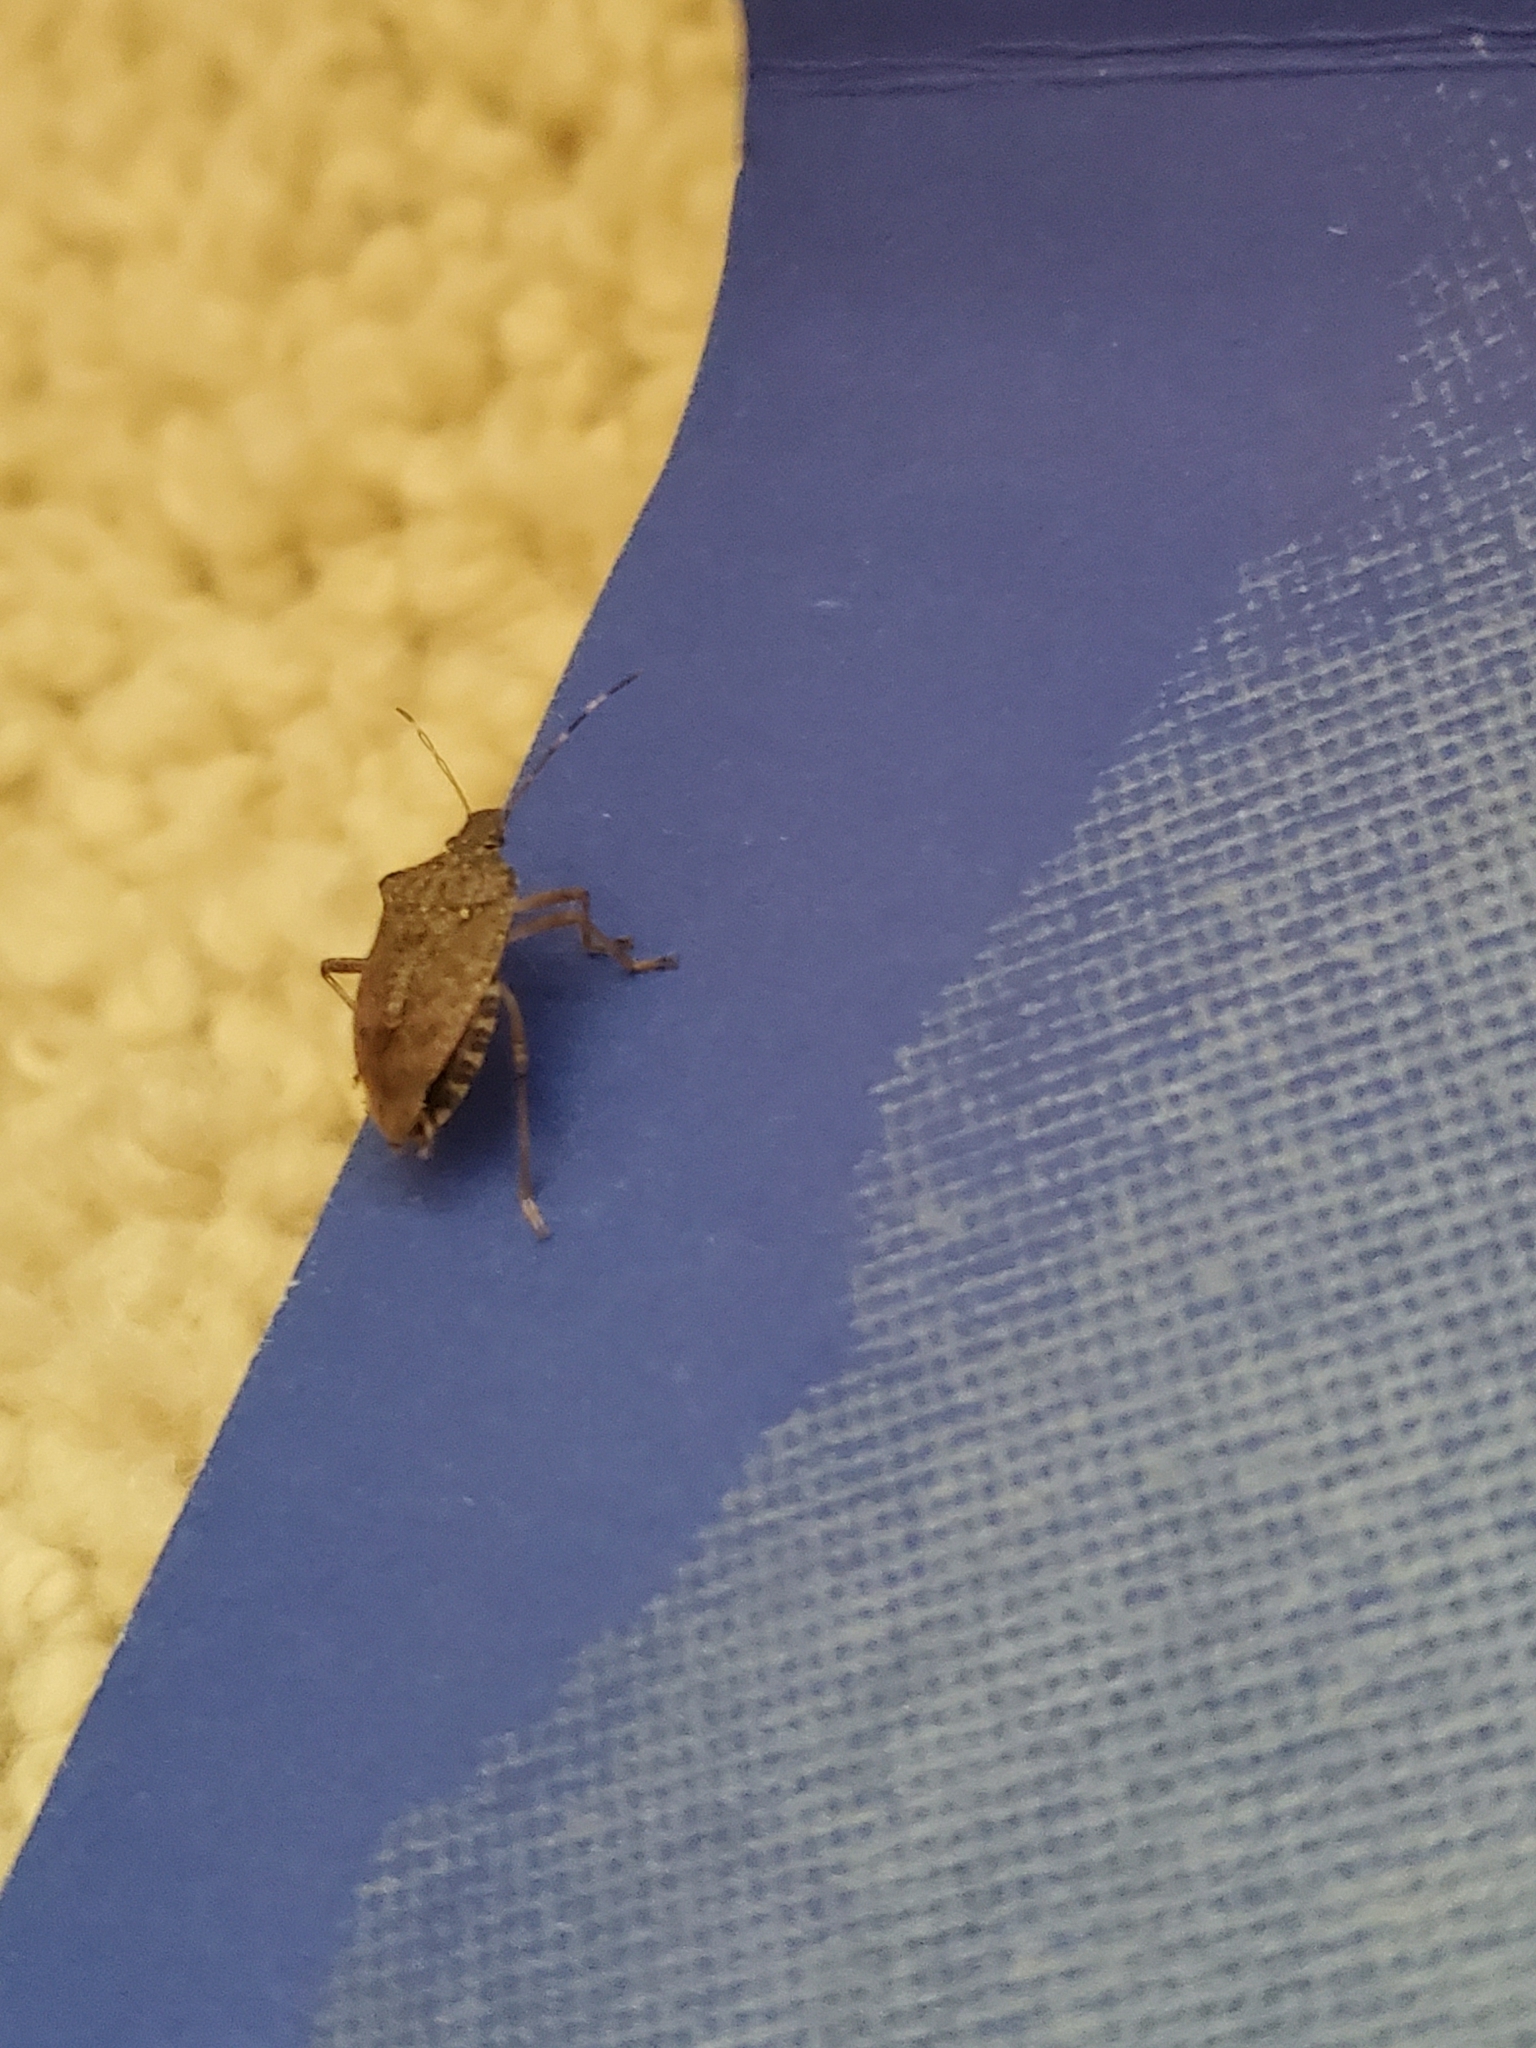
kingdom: Animalia
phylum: Arthropoda
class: Insecta
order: Hemiptera
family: Pentatomidae
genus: Halyomorpha
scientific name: Halyomorpha halys
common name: Brown marmorated stink bug
